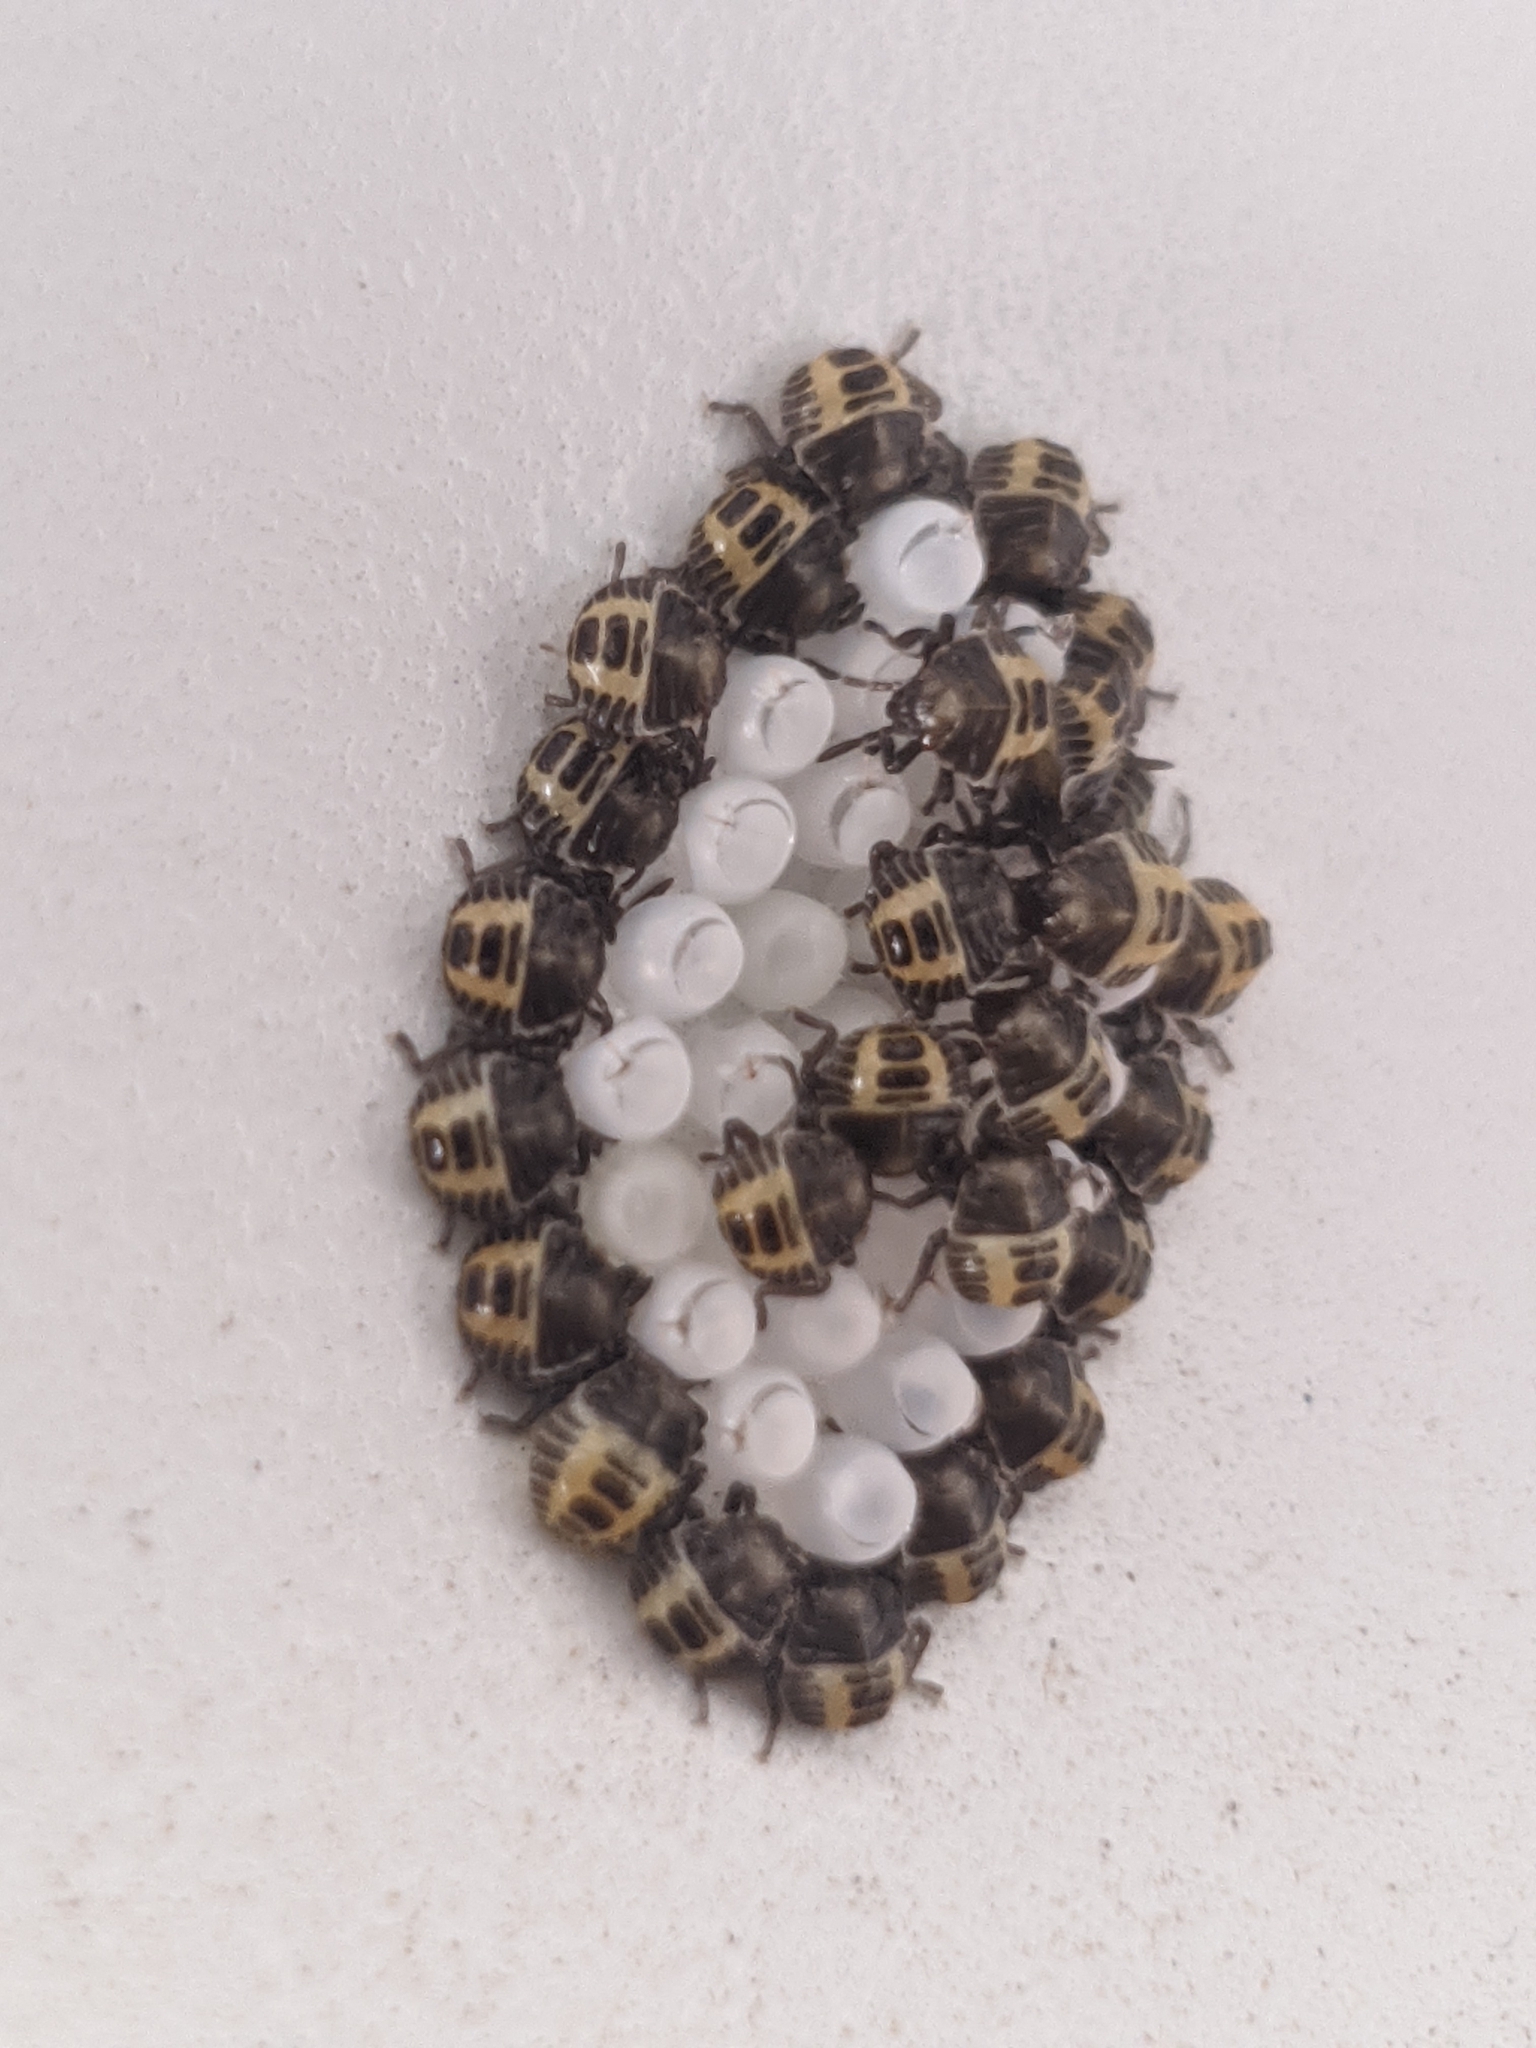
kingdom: Animalia
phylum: Arthropoda
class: Insecta
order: Hemiptera
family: Pentatomidae
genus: Halyomorpha
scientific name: Halyomorpha halys
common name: Brown marmorated stink bug
